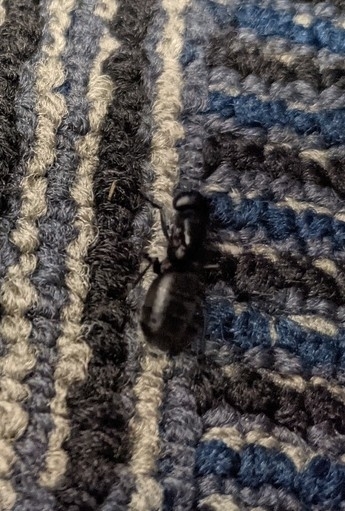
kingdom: Animalia
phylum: Arthropoda
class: Insecta
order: Hymenoptera
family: Formicidae
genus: Camponotus
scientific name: Camponotus pennsylvanicus
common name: Black carpenter ant
